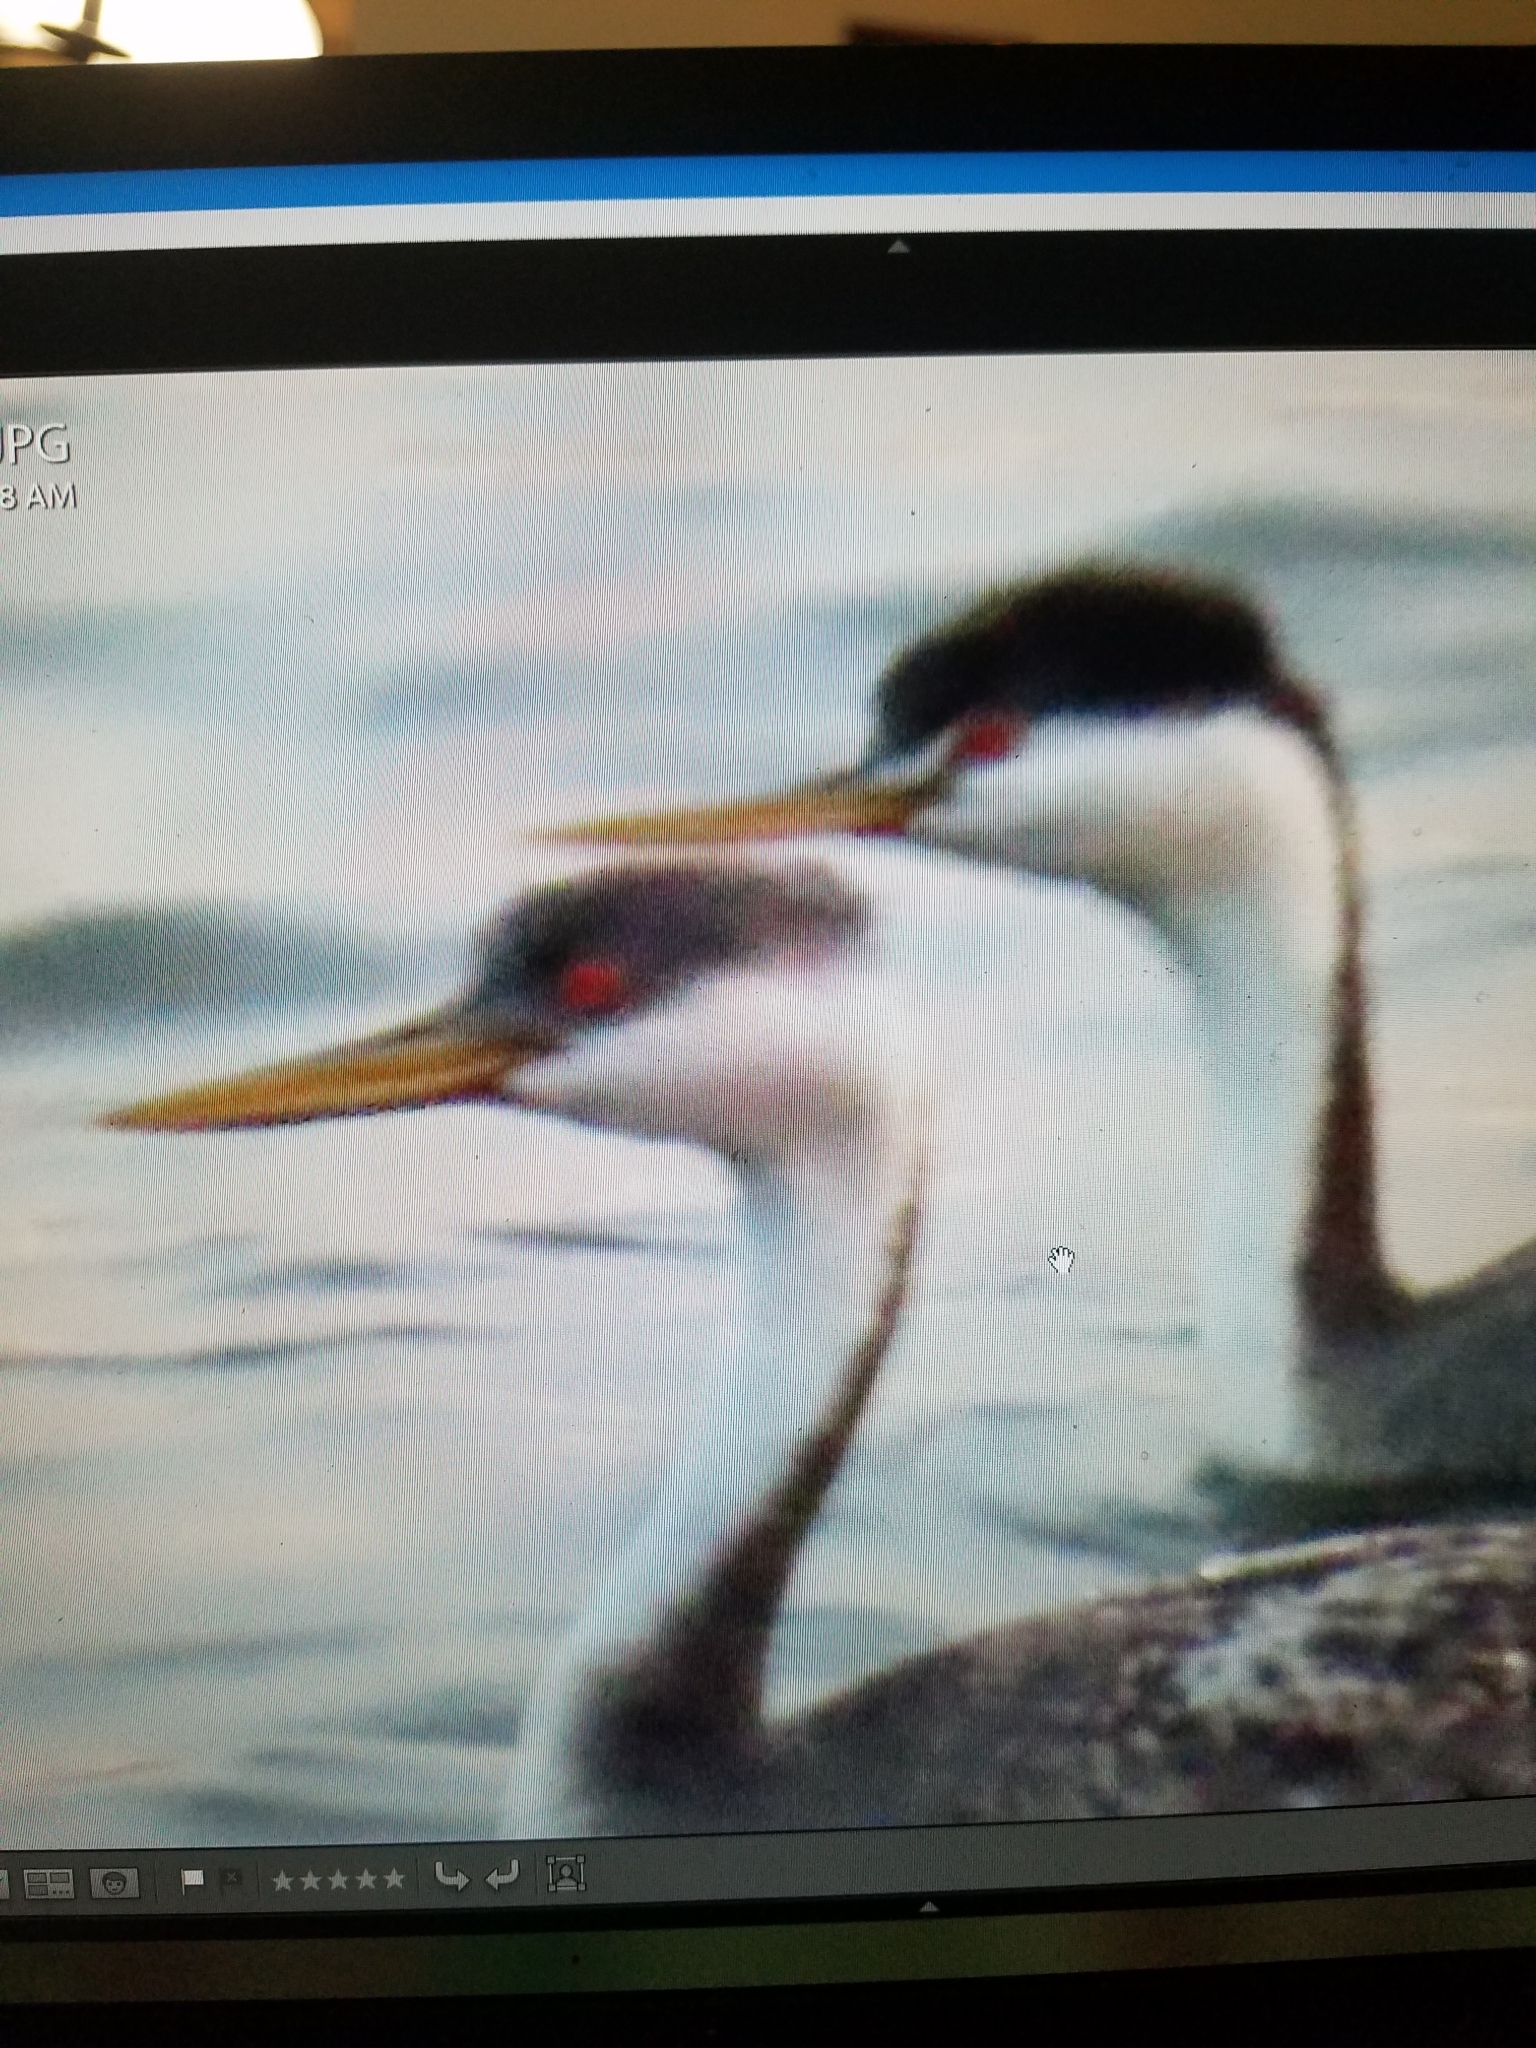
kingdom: Animalia
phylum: Chordata
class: Aves
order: Podicipediformes
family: Podicipedidae
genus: Aechmophorus
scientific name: Aechmophorus occidentalis
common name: Western grebe
